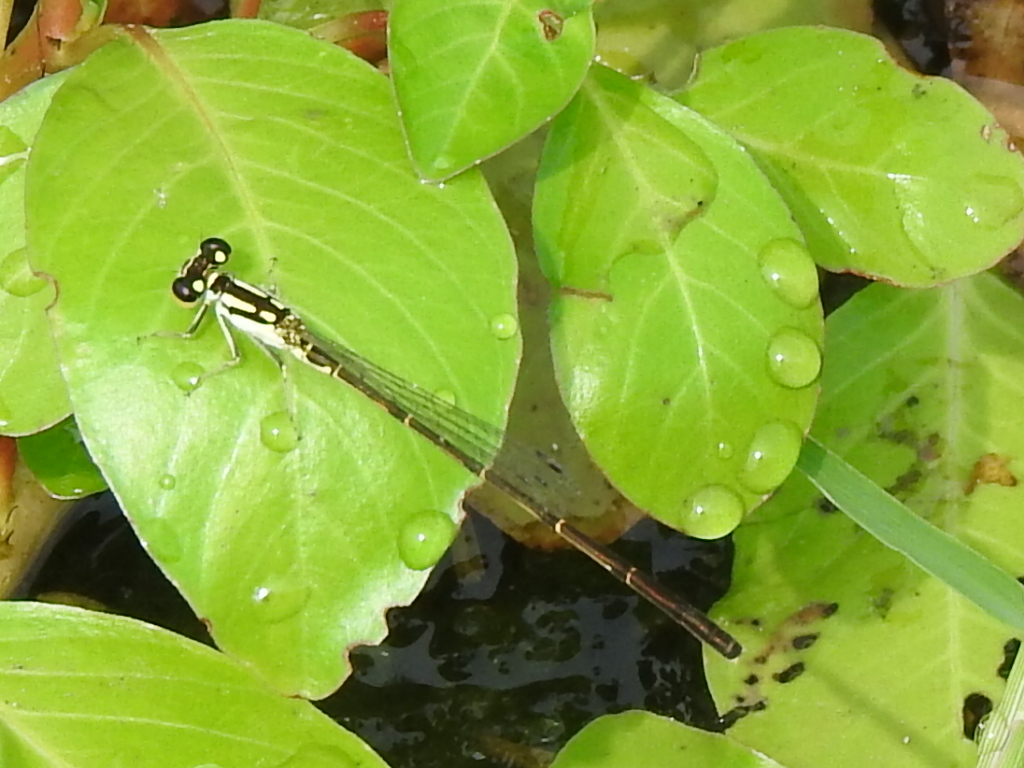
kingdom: Animalia
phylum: Arthropoda
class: Insecta
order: Odonata
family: Coenagrionidae
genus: Ischnura
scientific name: Ischnura posita
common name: Fragile forktail
